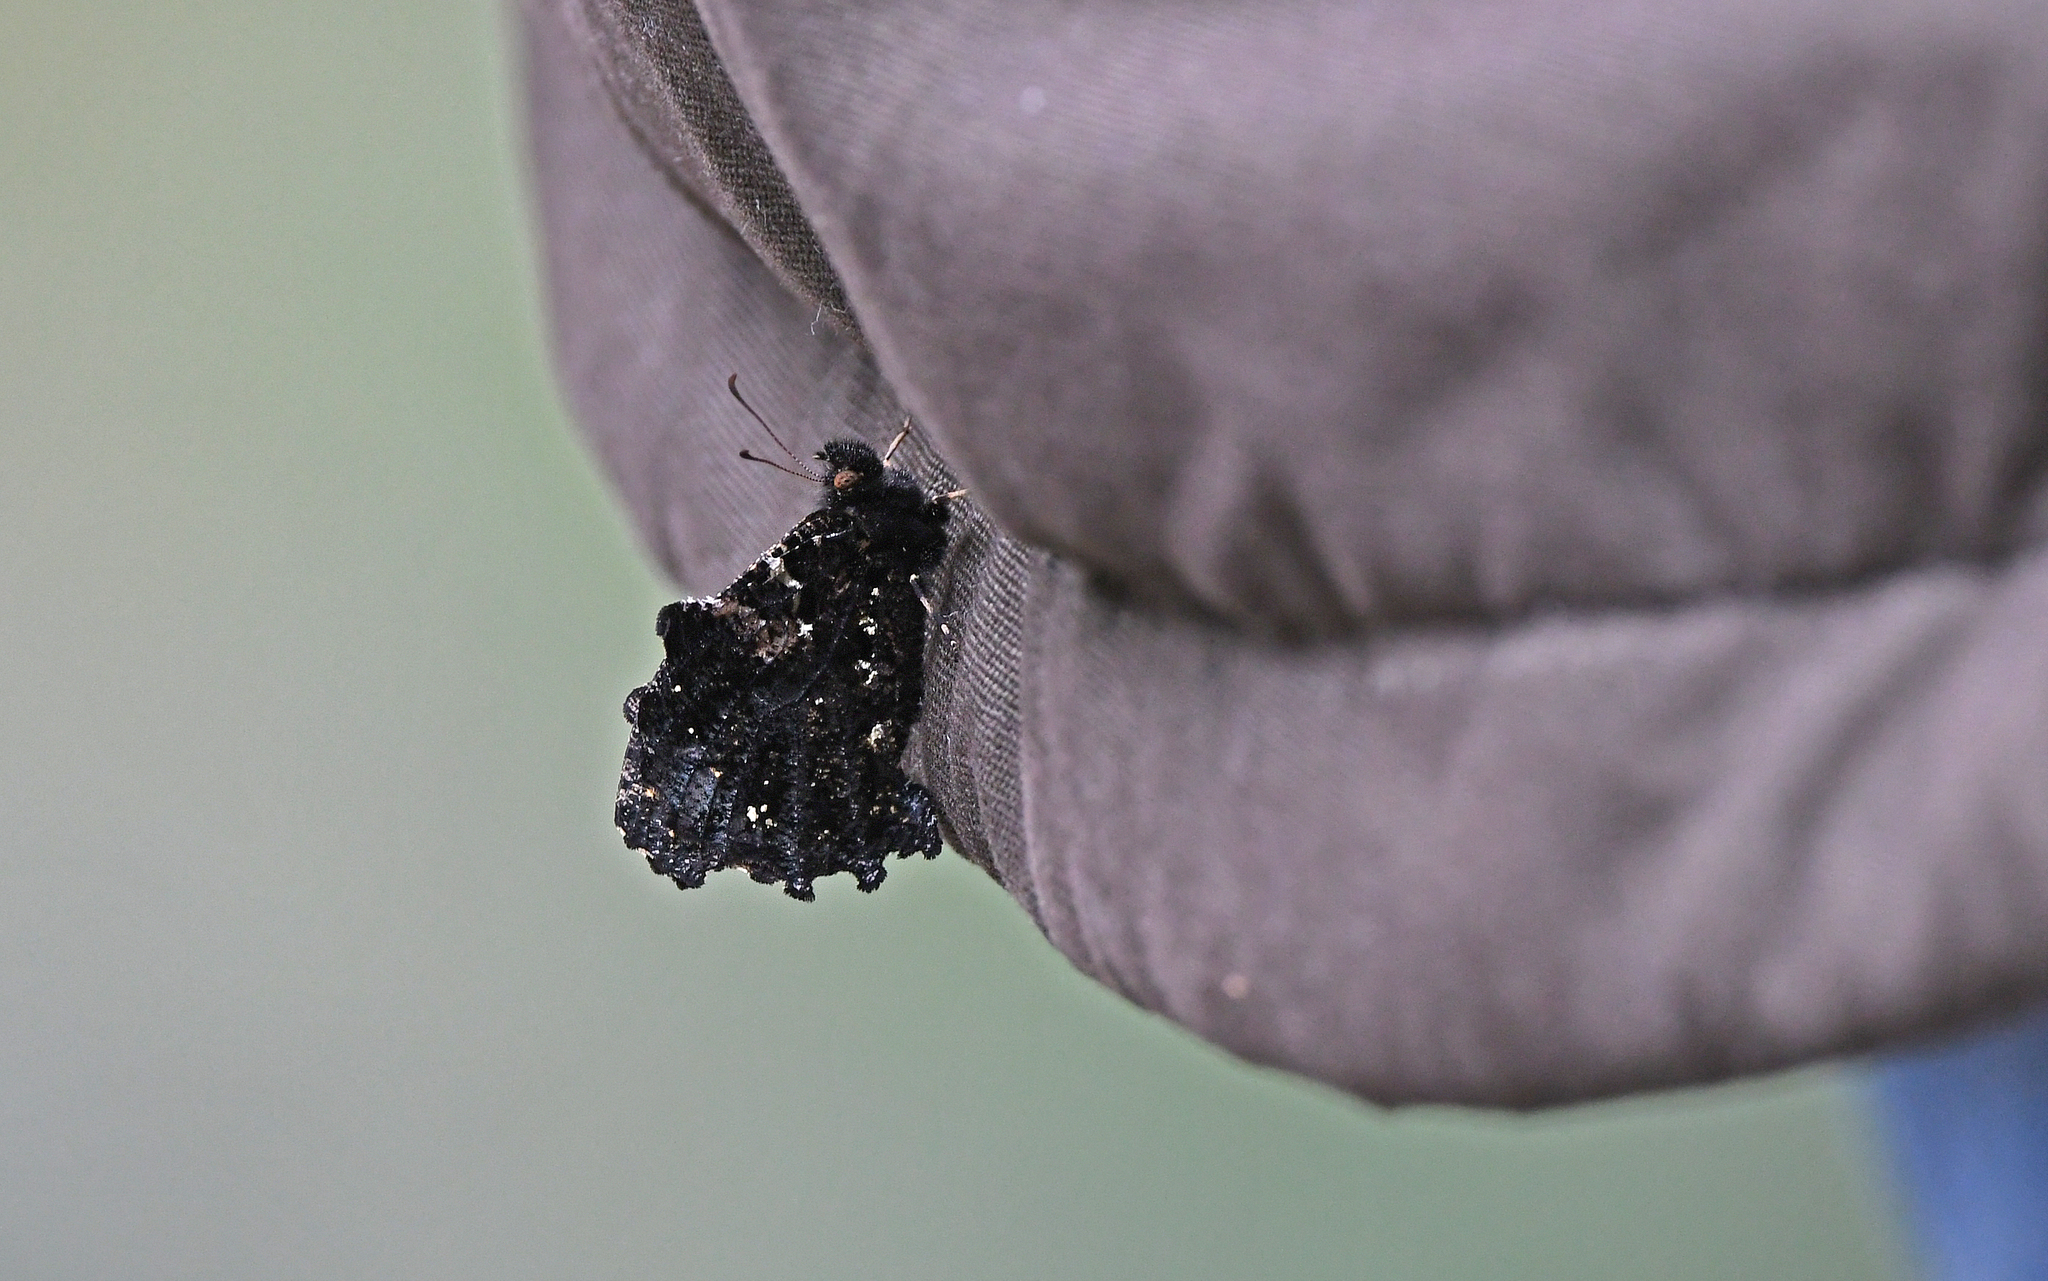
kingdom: Animalia
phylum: Arthropoda
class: Insecta
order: Lepidoptera
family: Nymphalidae
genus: Steroma
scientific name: Steroma bega
